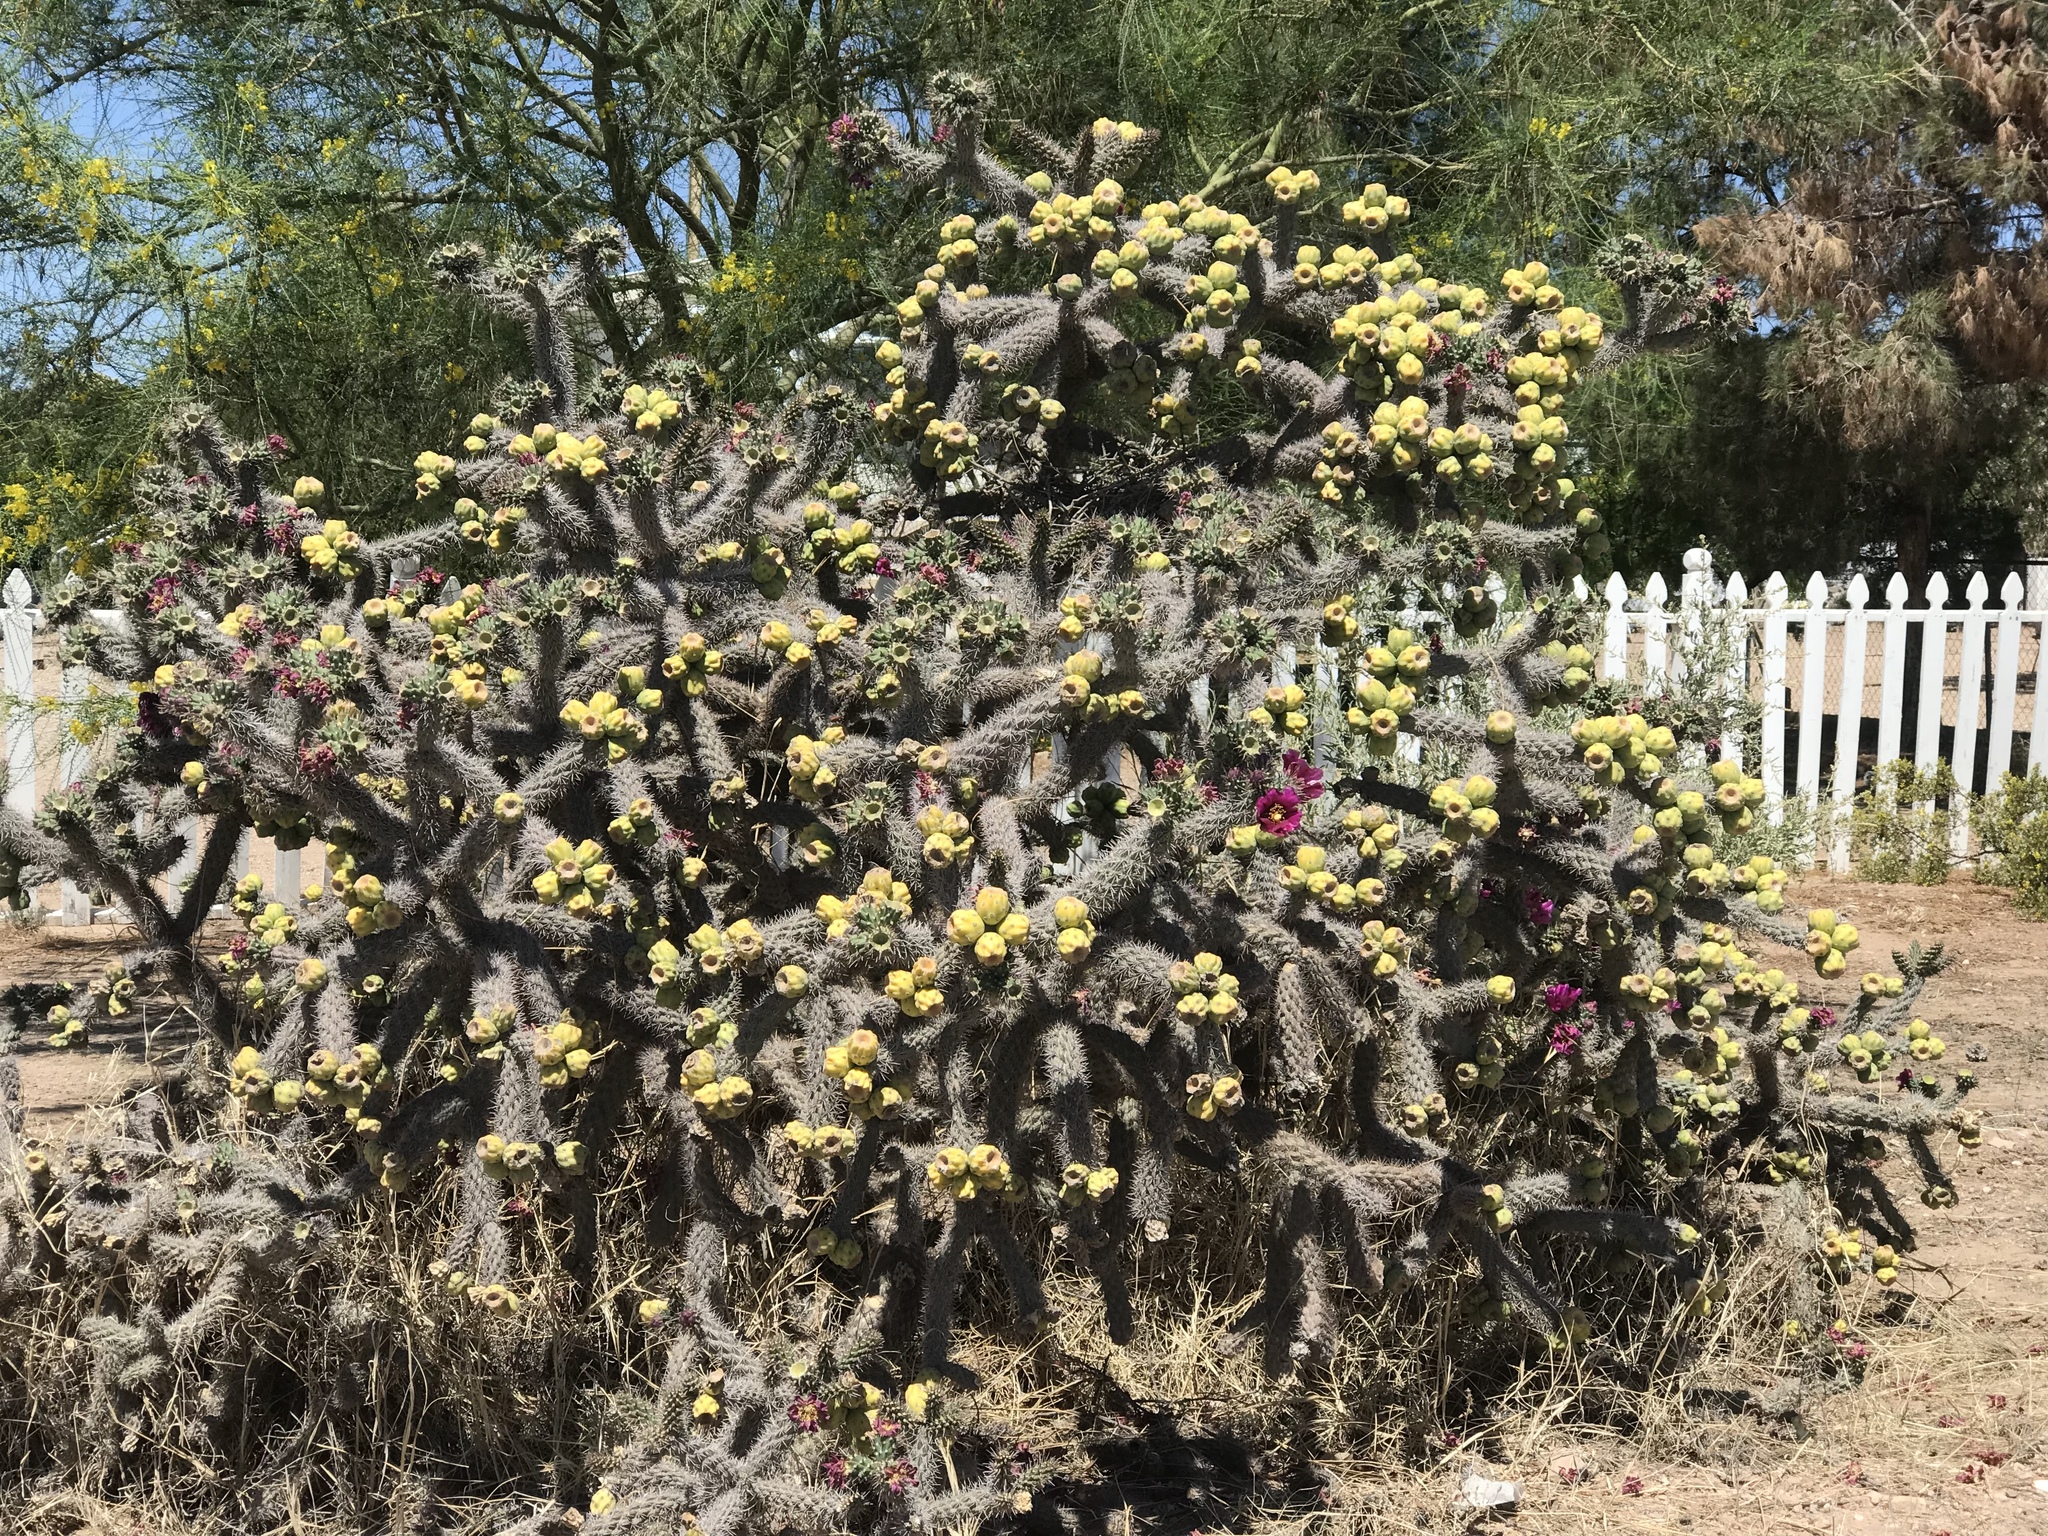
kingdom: Plantae
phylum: Tracheophyta
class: Magnoliopsida
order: Caryophyllales
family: Cactaceae
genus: Cylindropuntia
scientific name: Cylindropuntia imbricata
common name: Candelabrum cactus
